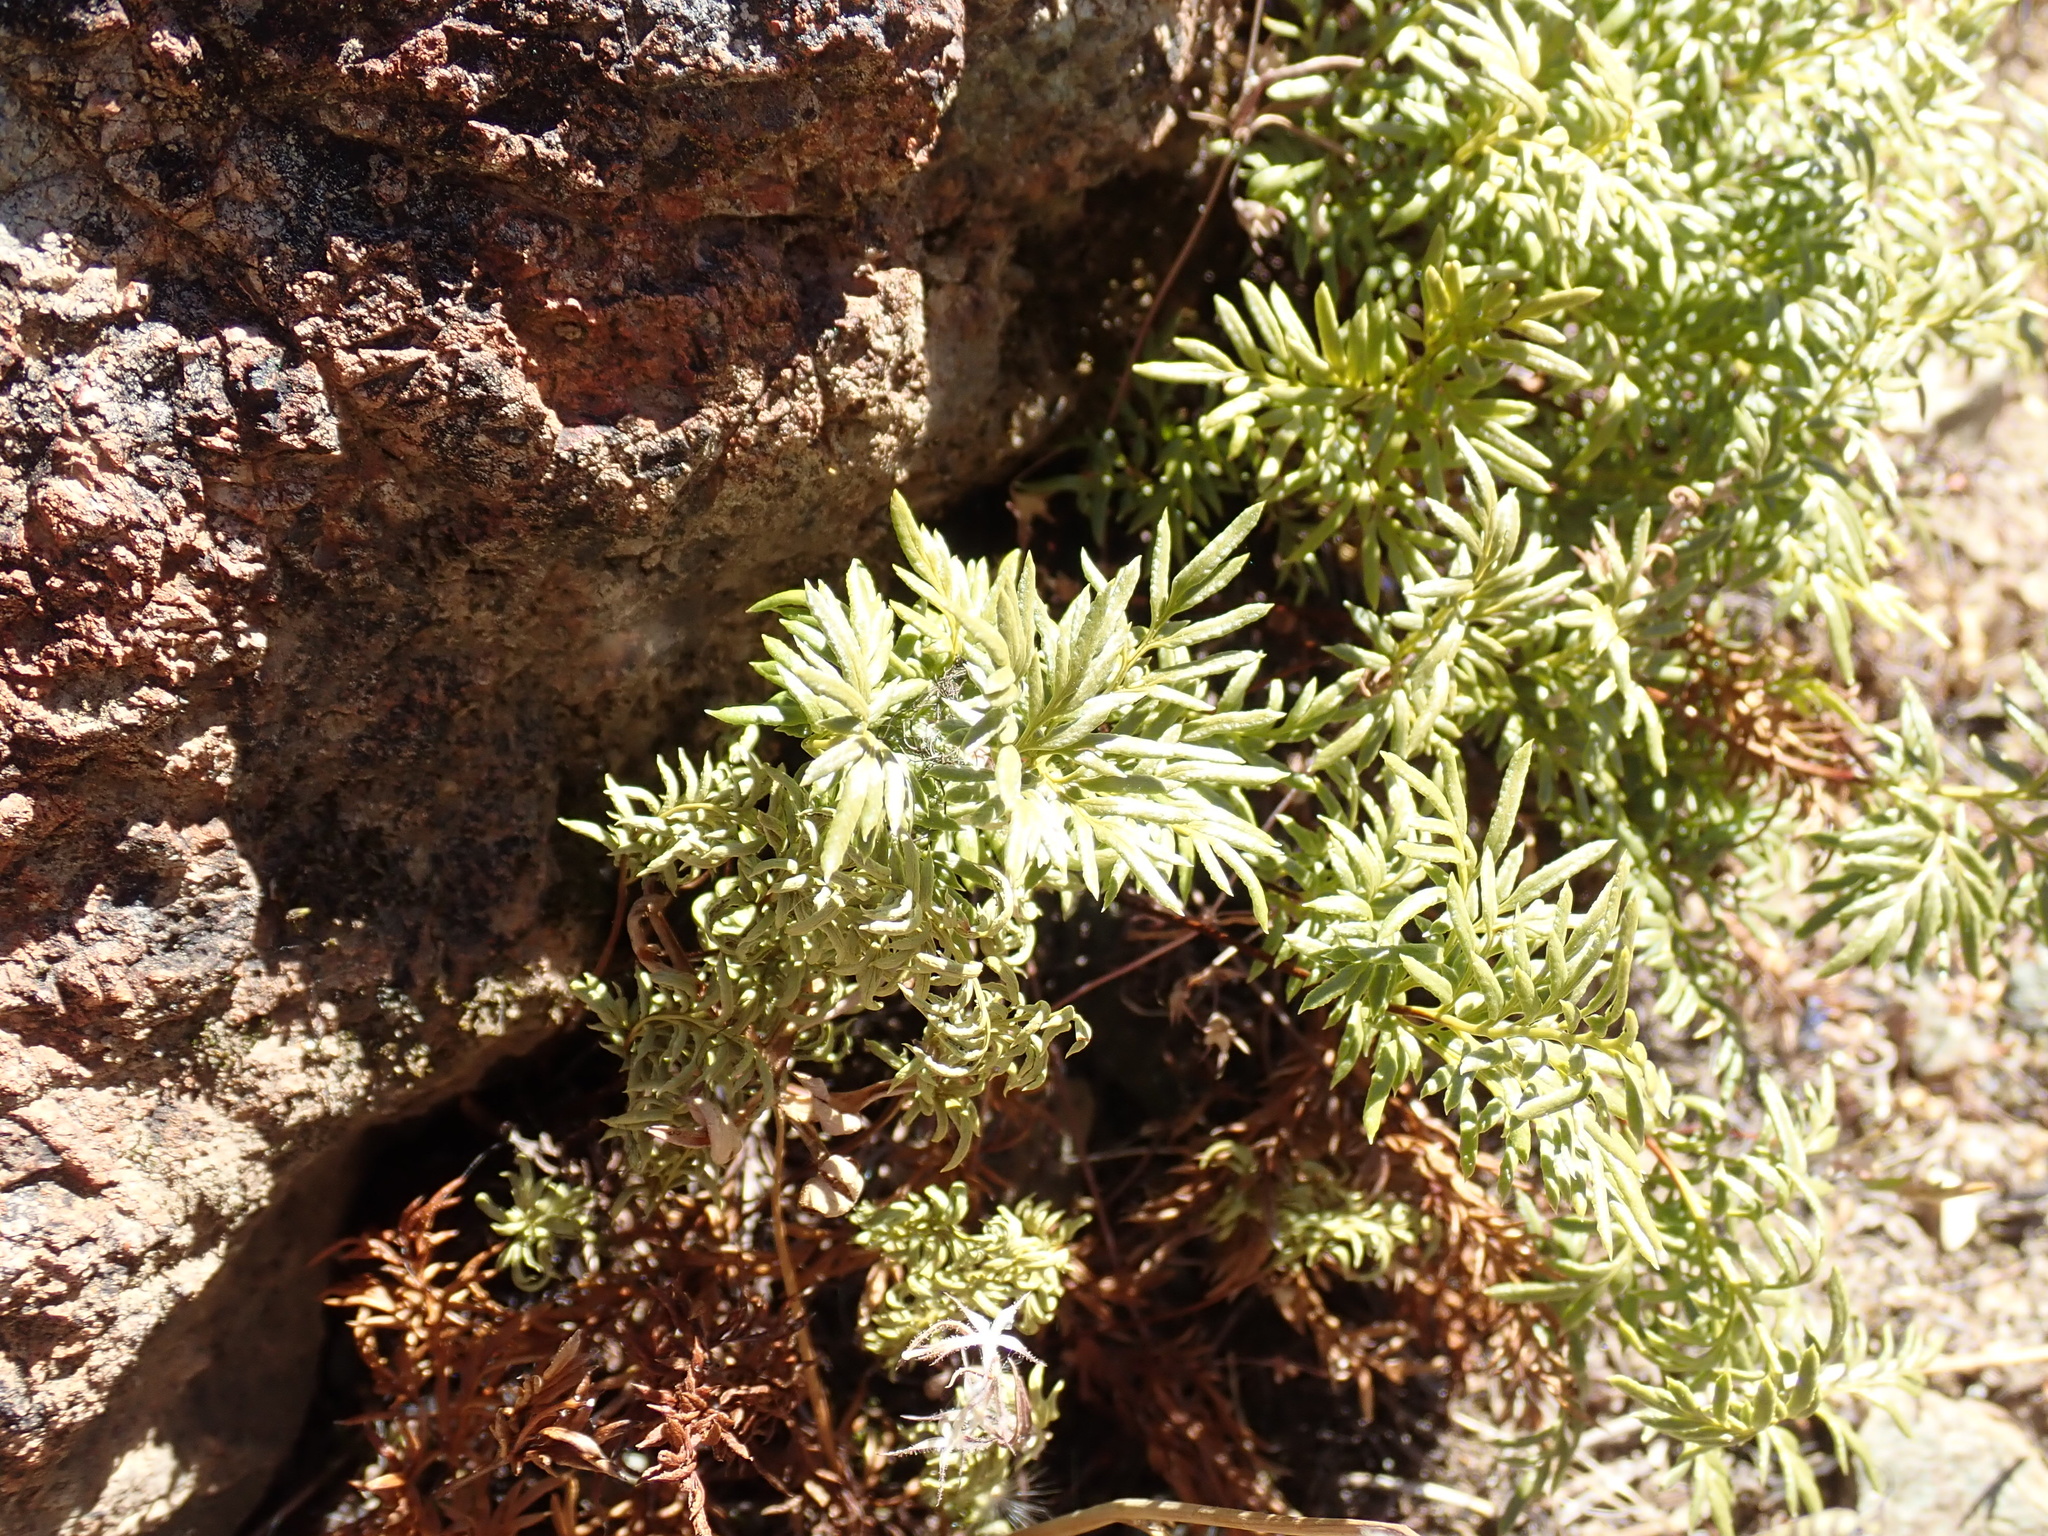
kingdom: Plantae
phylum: Tracheophyta
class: Polypodiopsida
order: Polypodiales
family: Pteridaceae
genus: Aspidotis
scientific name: Aspidotis densa
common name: Indian's dream
